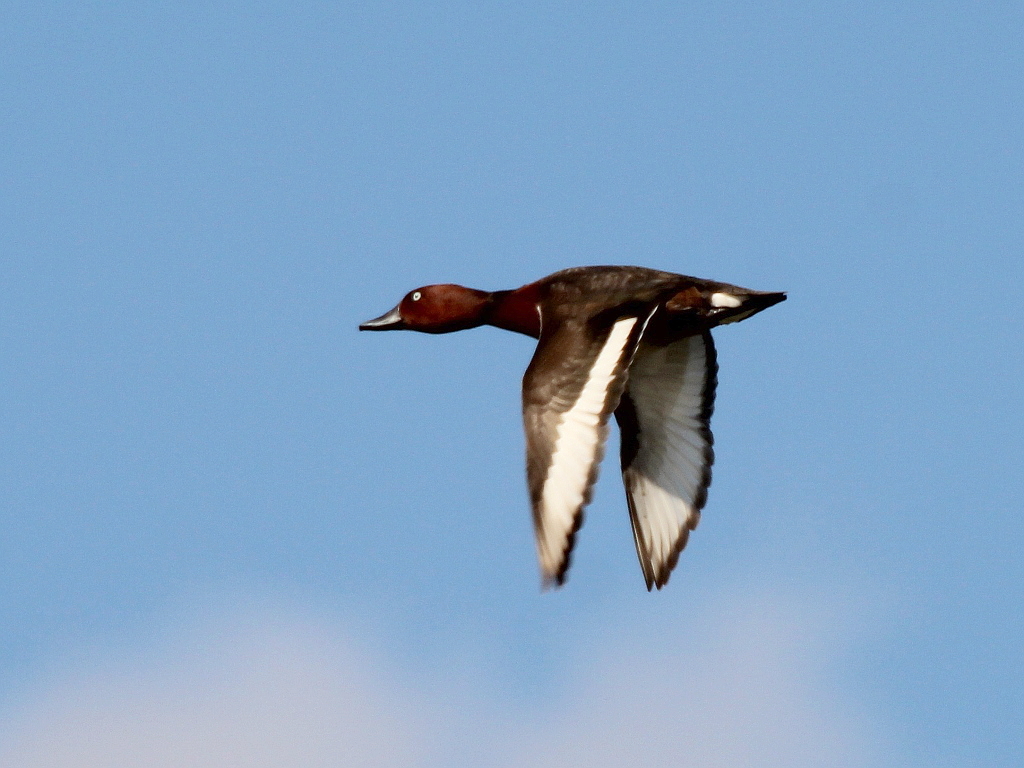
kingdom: Animalia
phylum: Chordata
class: Aves
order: Anseriformes
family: Anatidae
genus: Aythya
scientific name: Aythya nyroca
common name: Ferruginous duck
